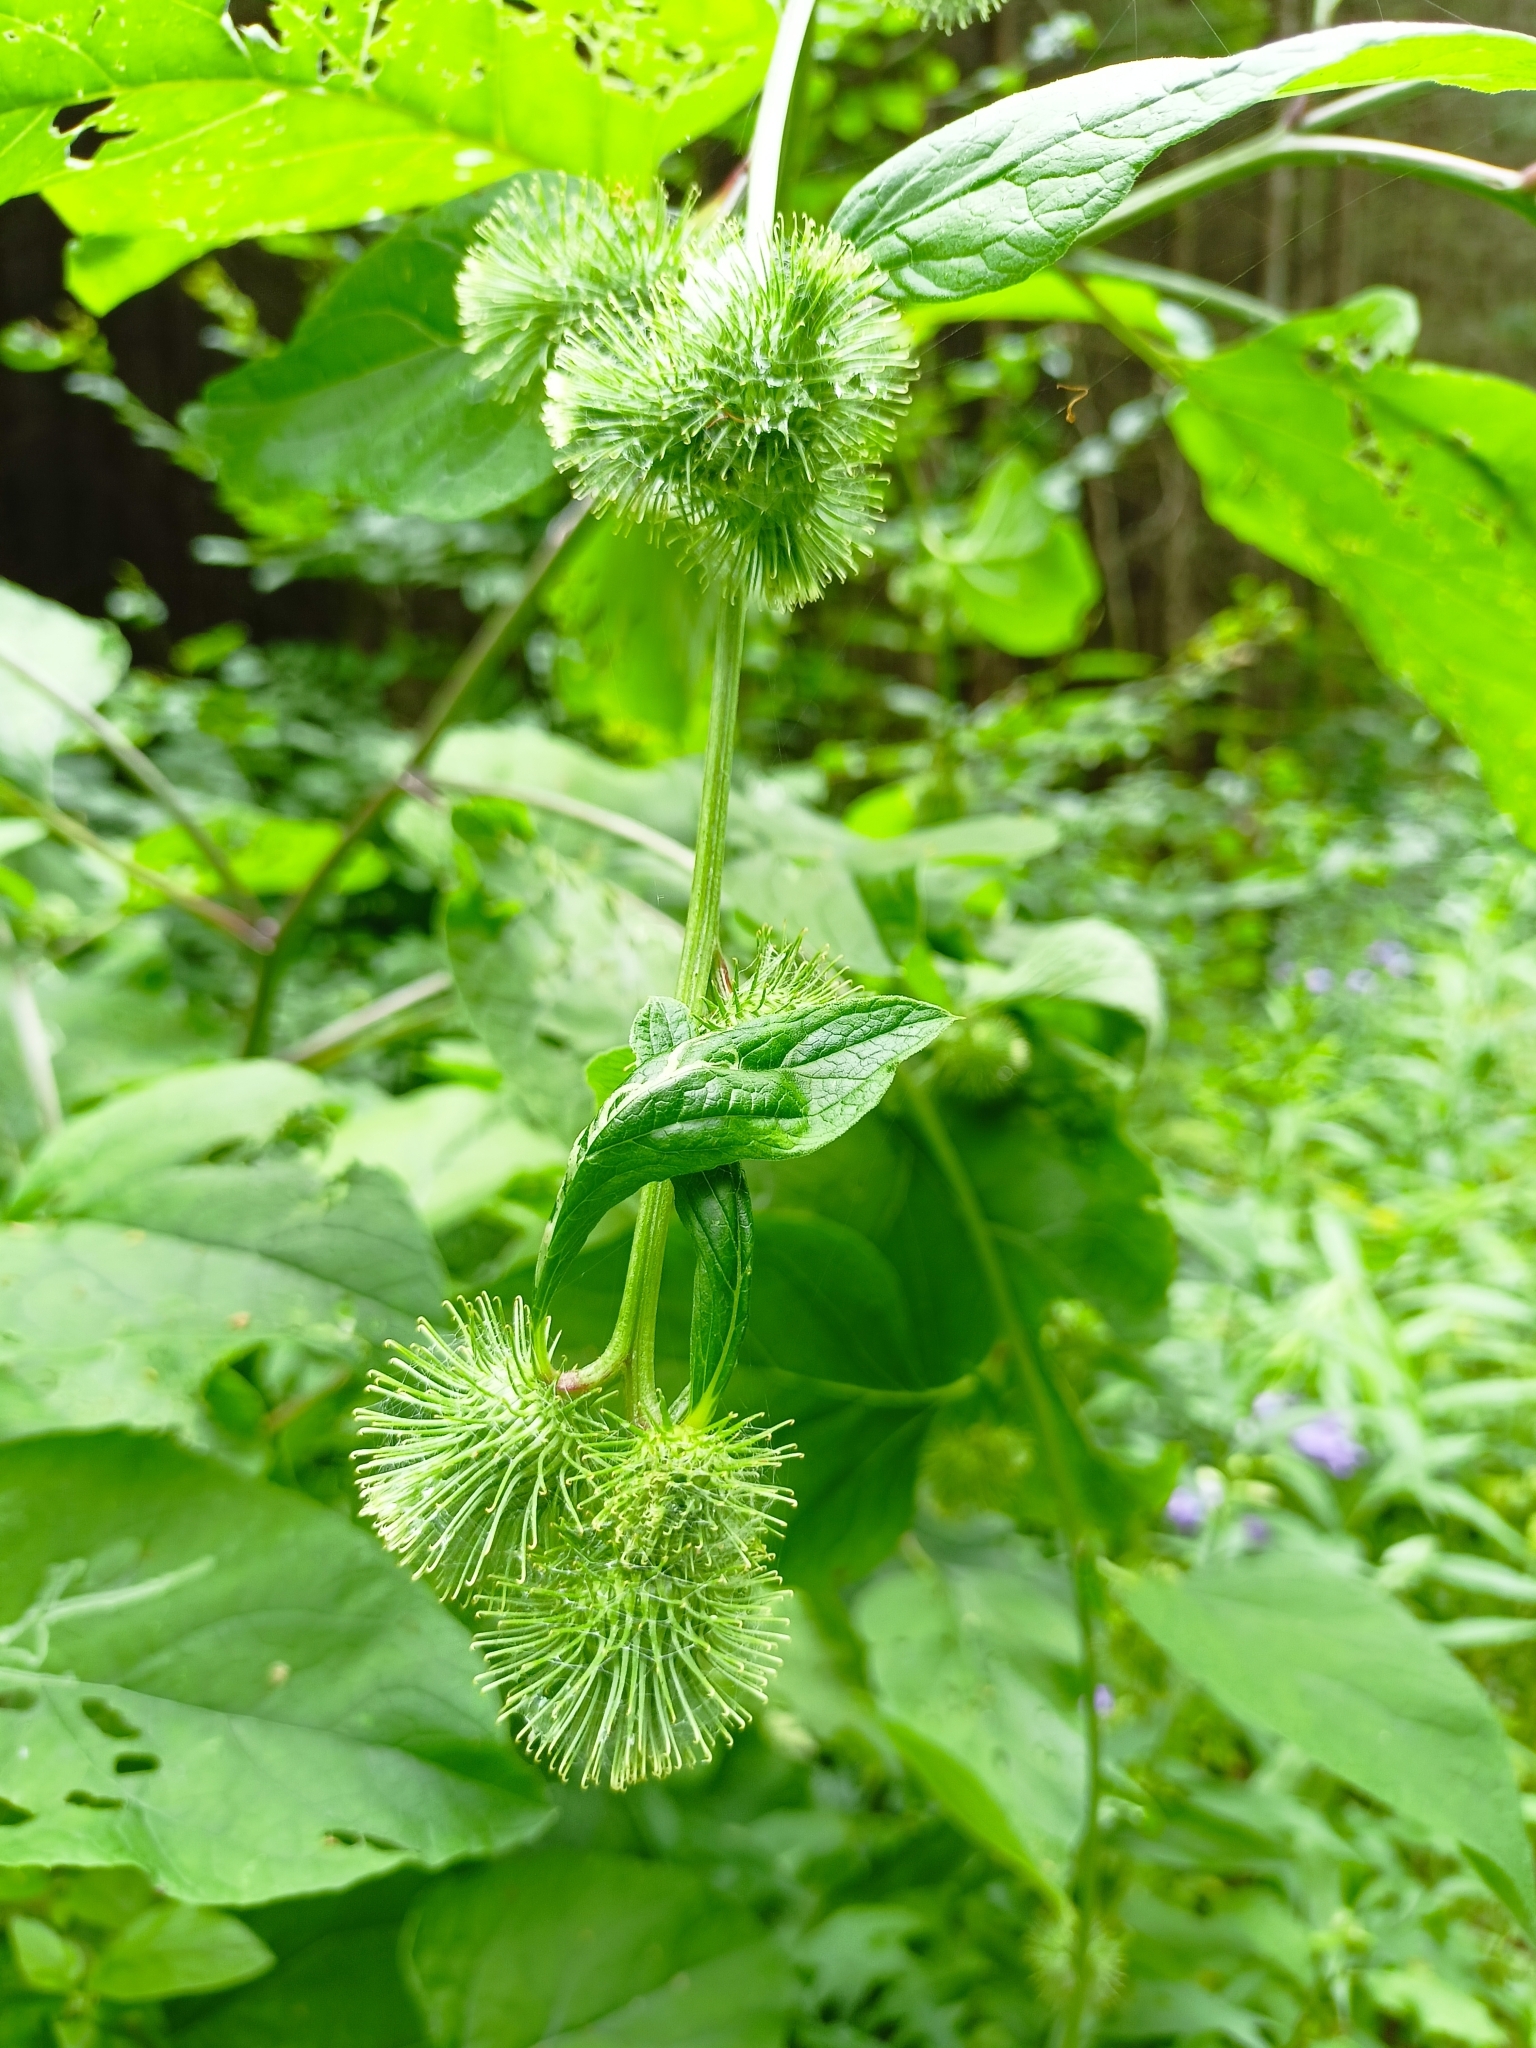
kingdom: Plantae
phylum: Tracheophyta
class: Magnoliopsida
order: Asterales
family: Asteraceae
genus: Arctium
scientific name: Arctium lappa
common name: Greater burdock
